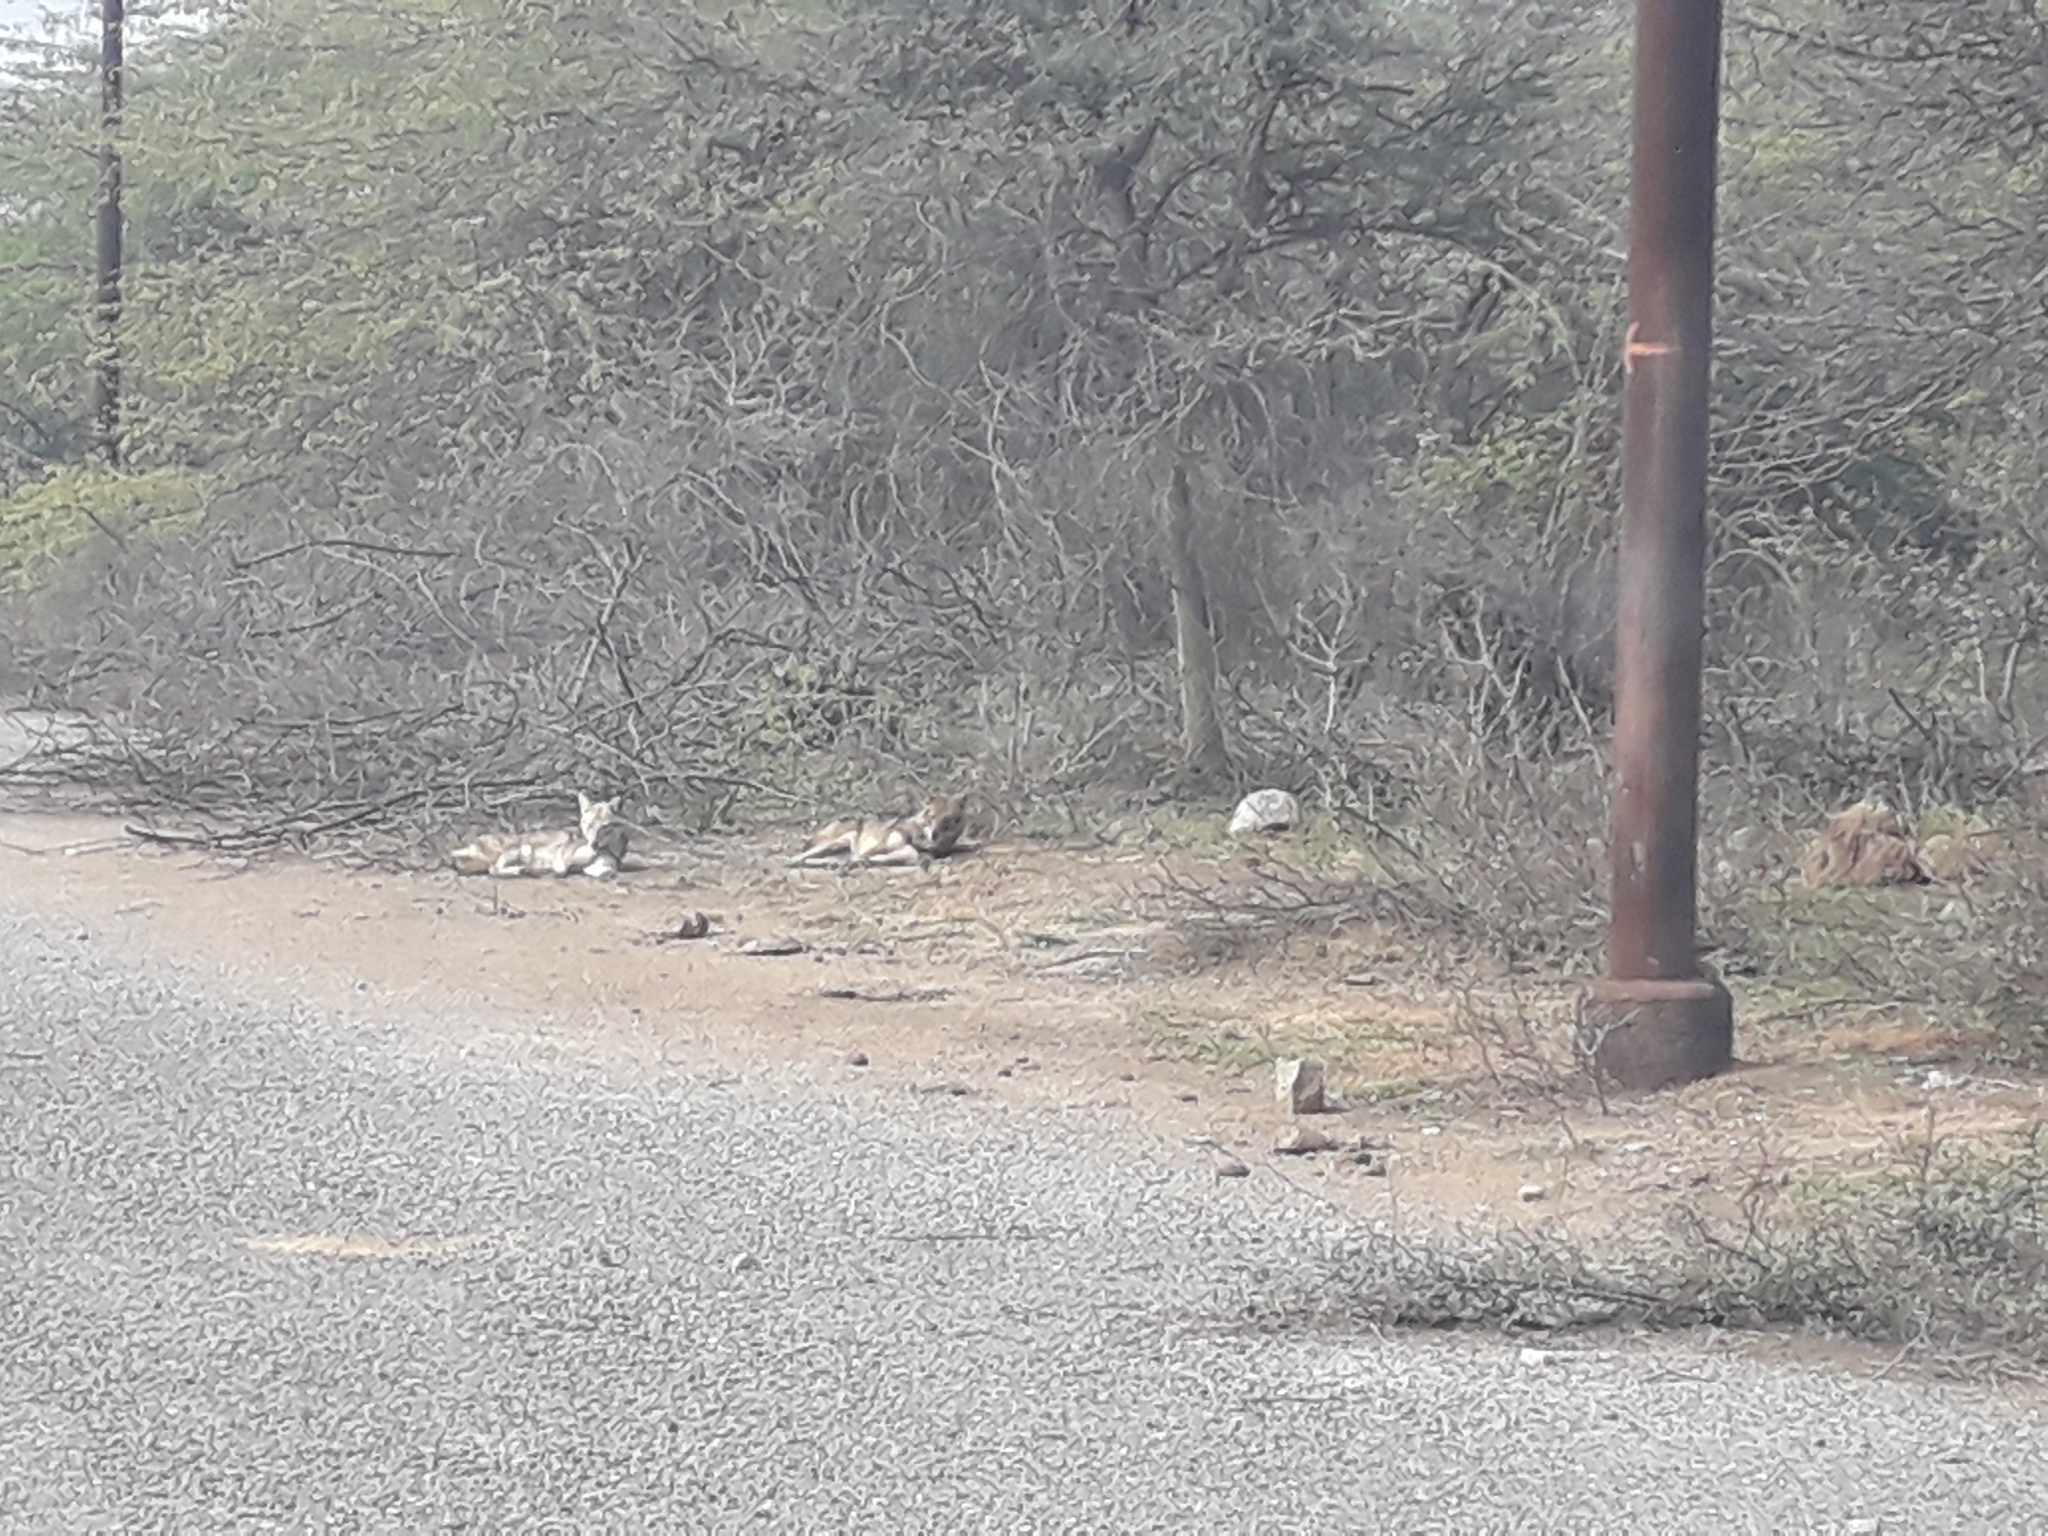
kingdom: Animalia
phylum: Chordata
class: Mammalia
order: Carnivora
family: Canidae
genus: Canis
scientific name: Canis aureus
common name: Golden jackal
